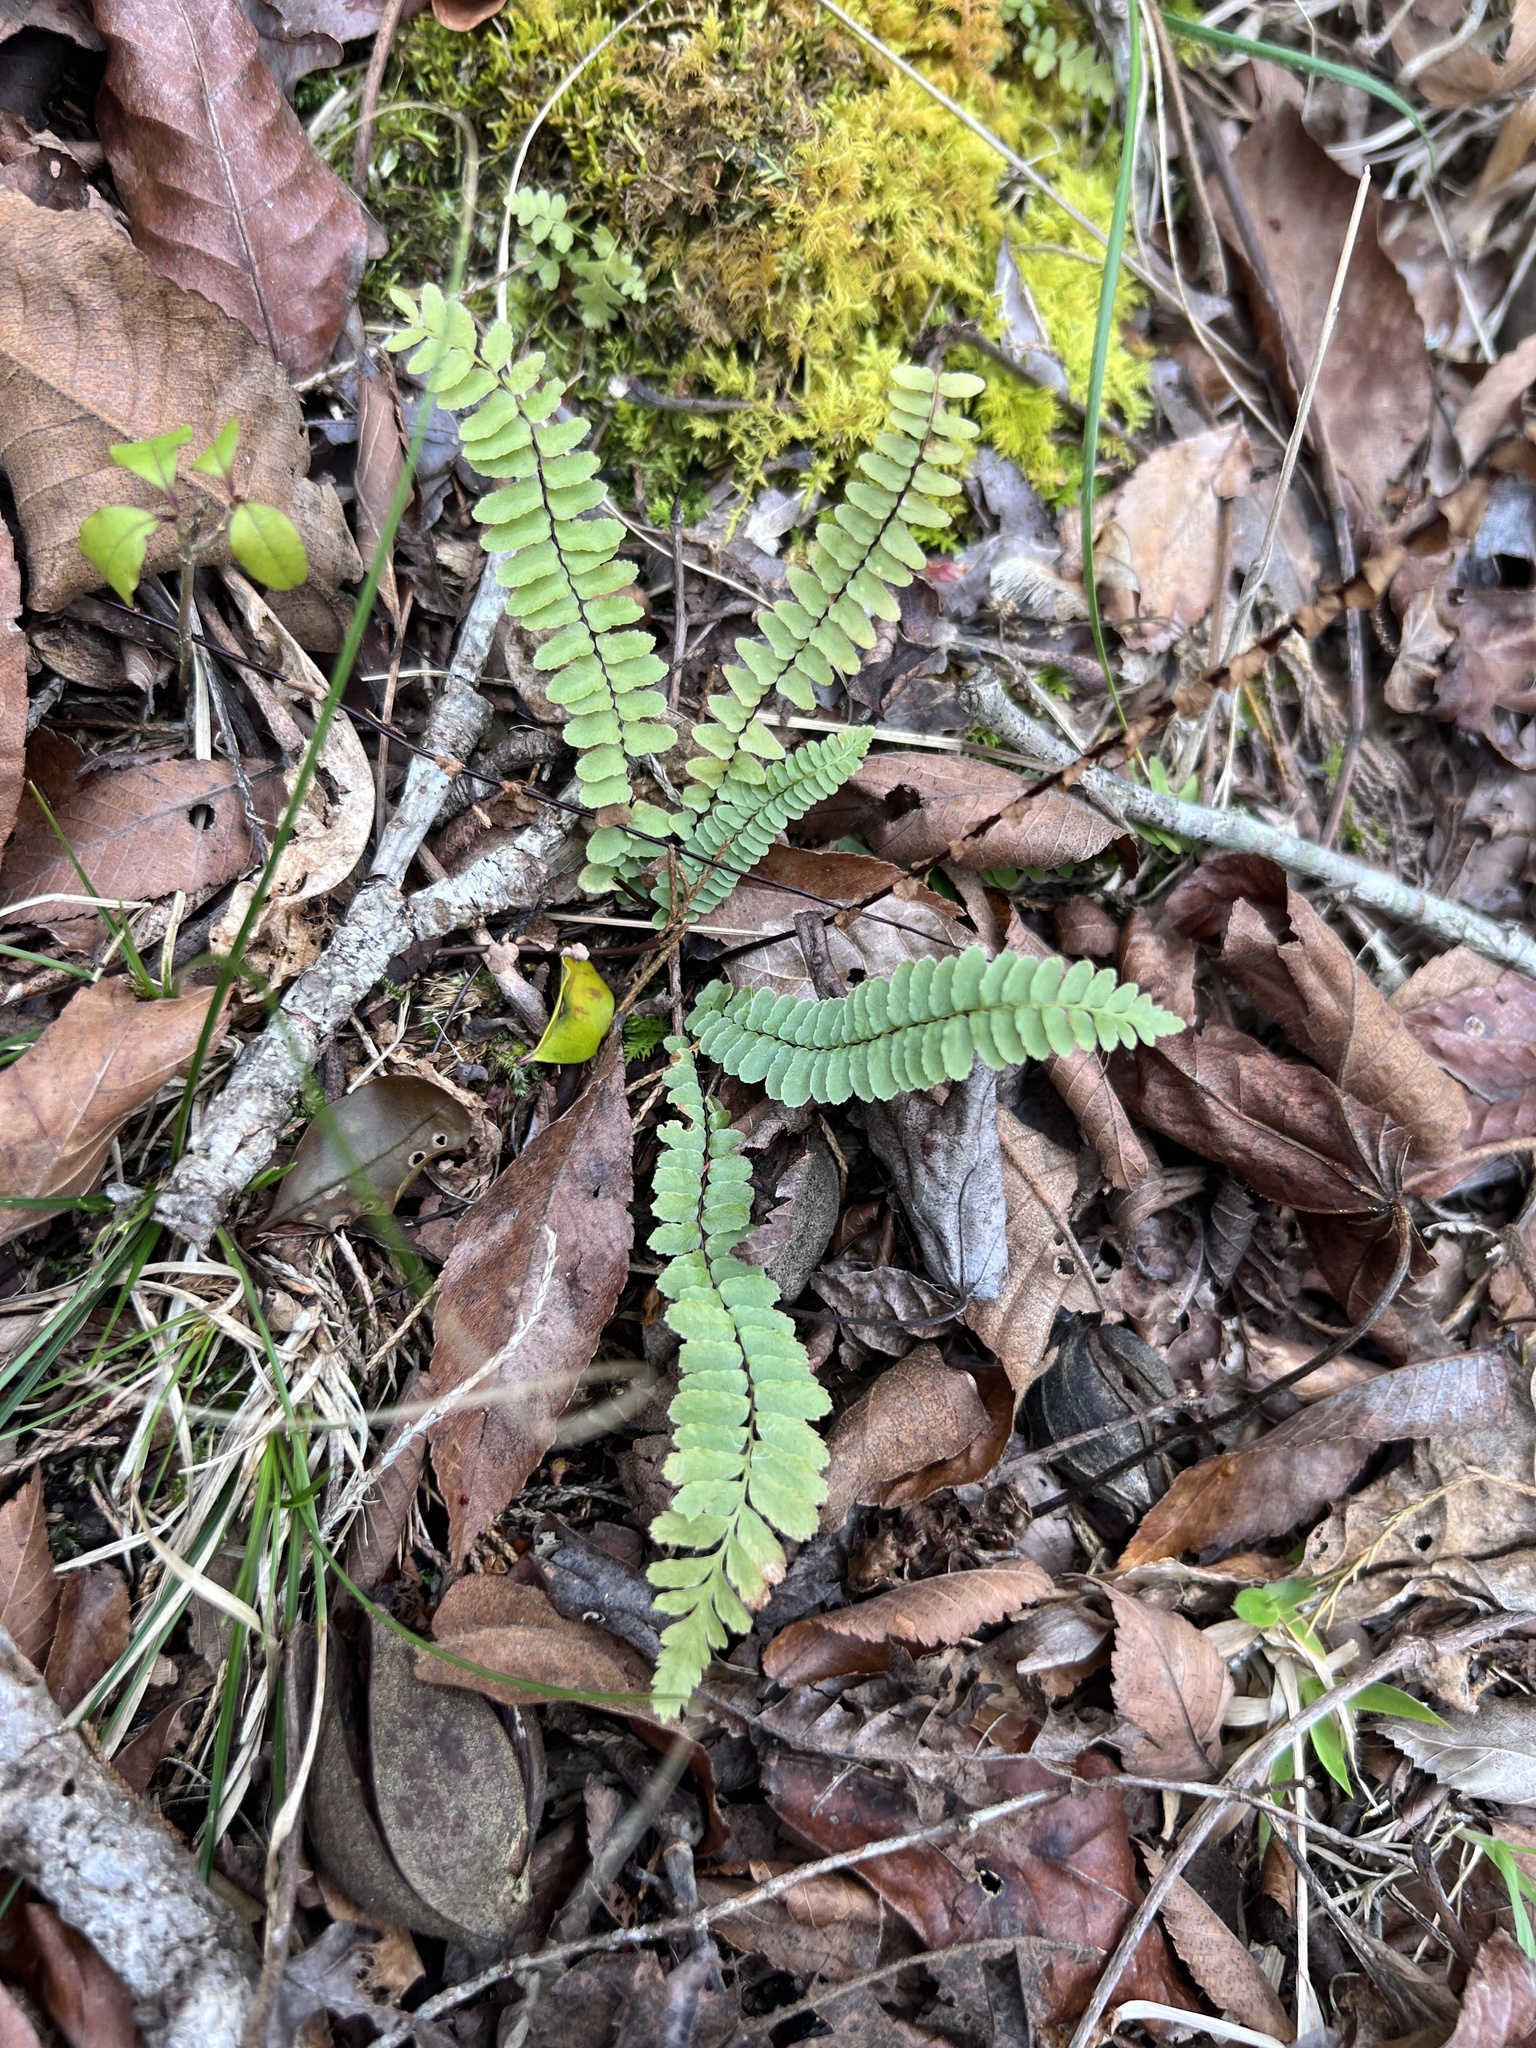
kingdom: Plantae
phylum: Tracheophyta
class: Polypodiopsida
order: Polypodiales
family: Aspleniaceae
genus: Asplenium
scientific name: Asplenium platyneuron
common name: Ebony spleenwort
